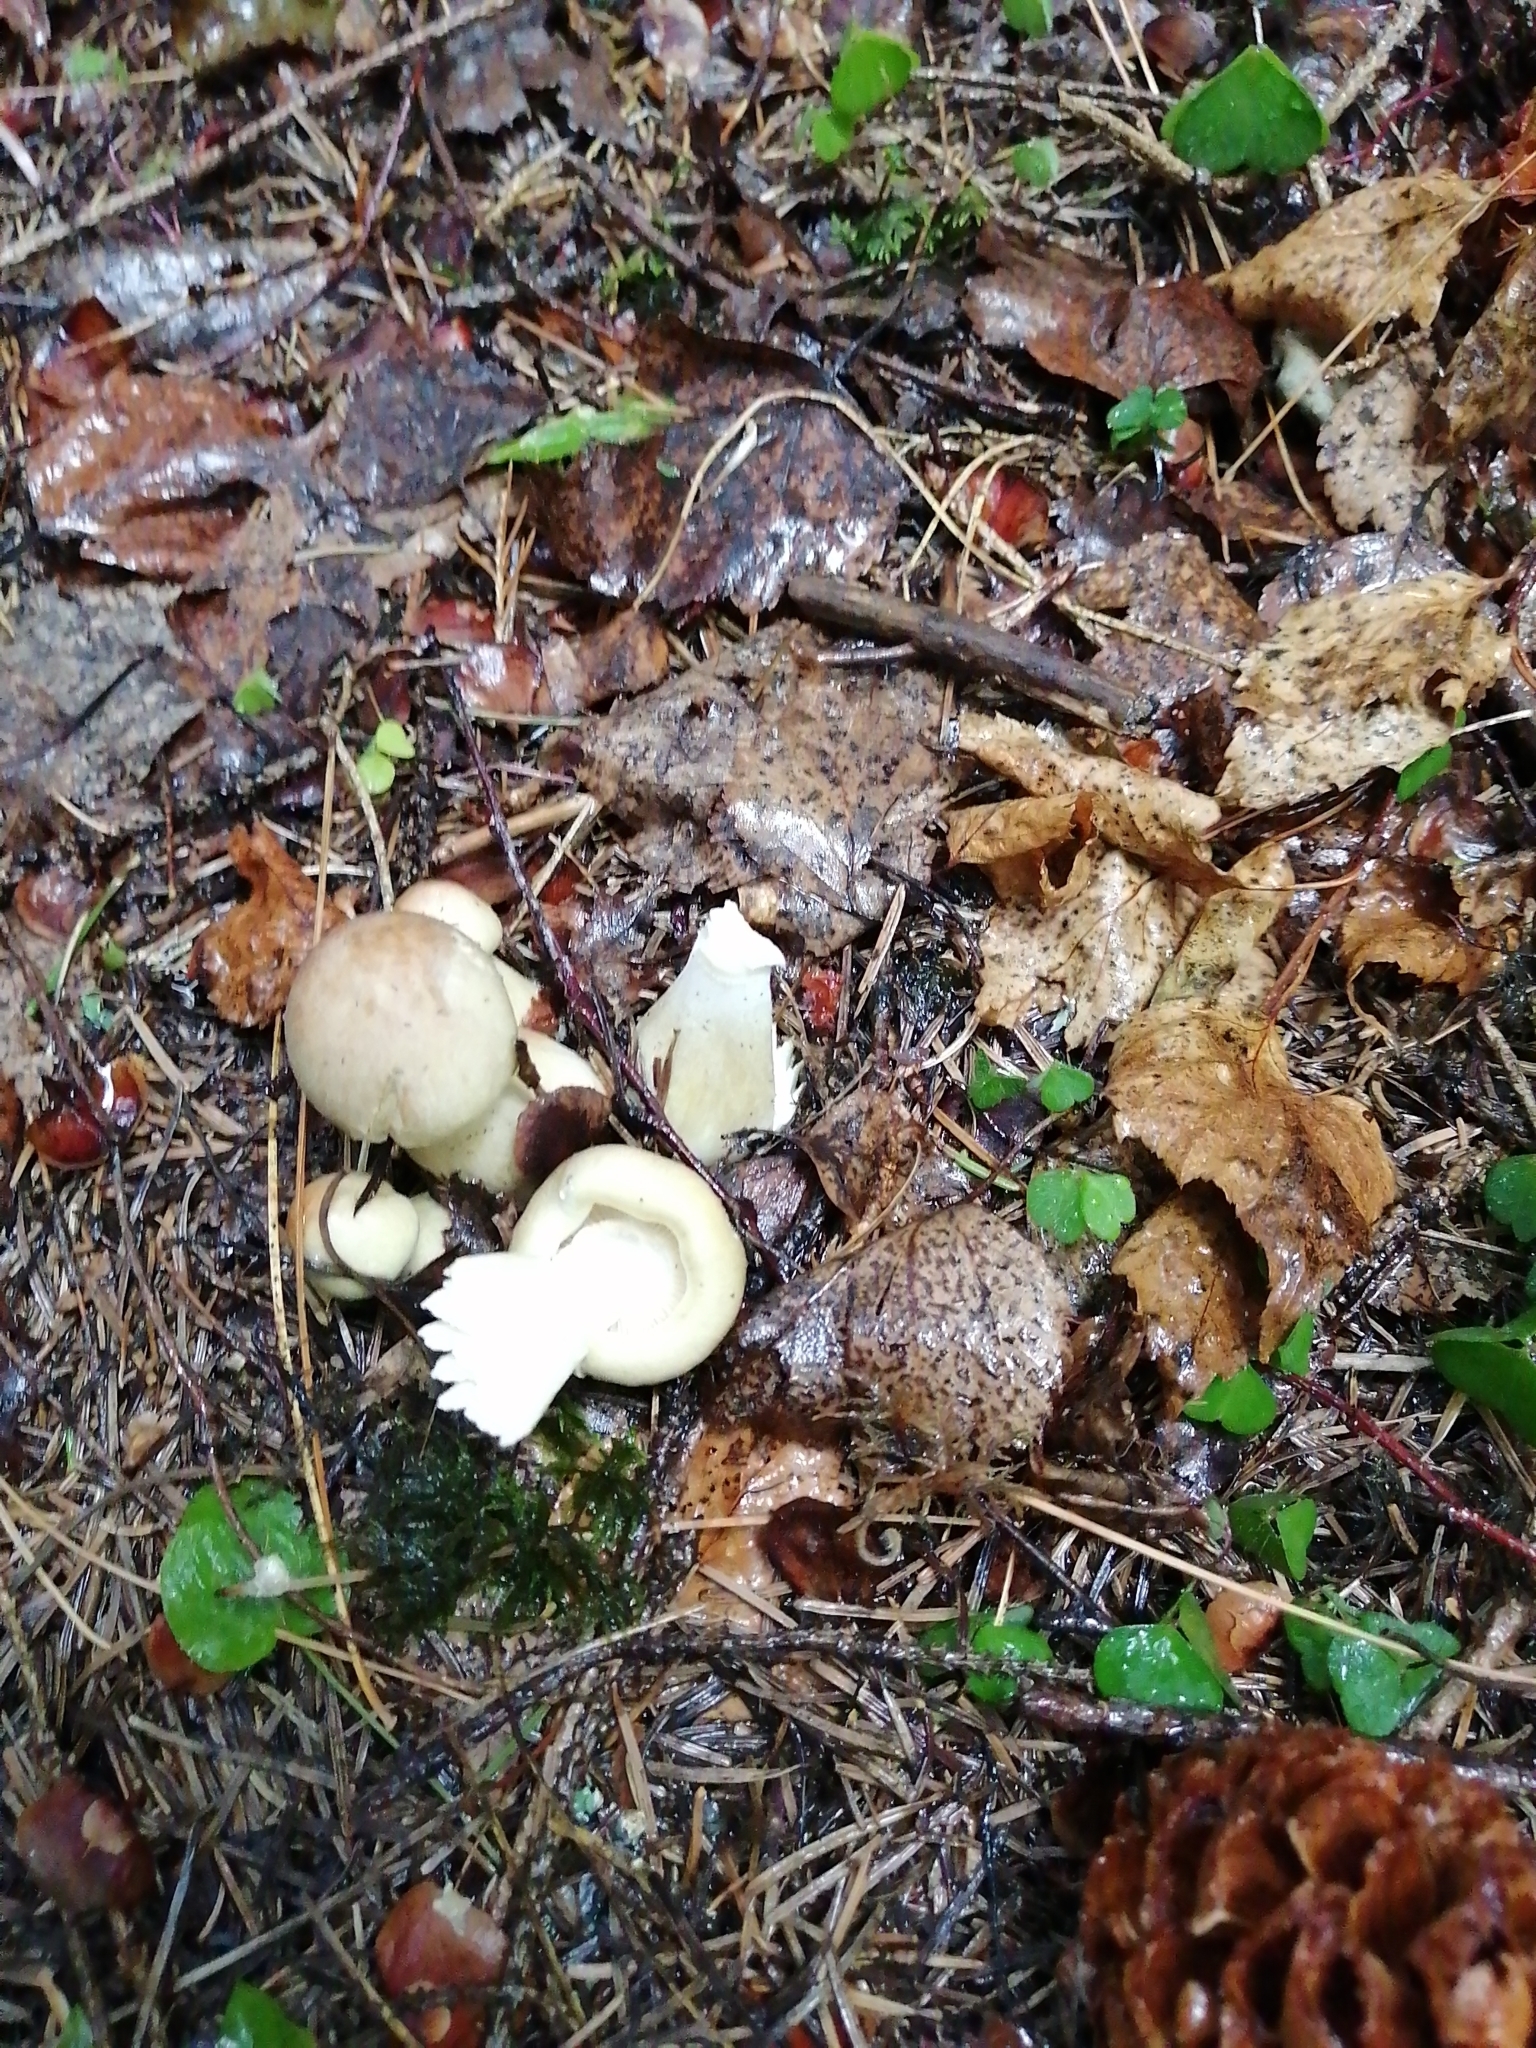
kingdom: Fungi
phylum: Basidiomycota
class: Agaricomycetes
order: Agaricales
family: Tricholomataceae
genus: Tricholoma
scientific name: Tricholoma rapipes
